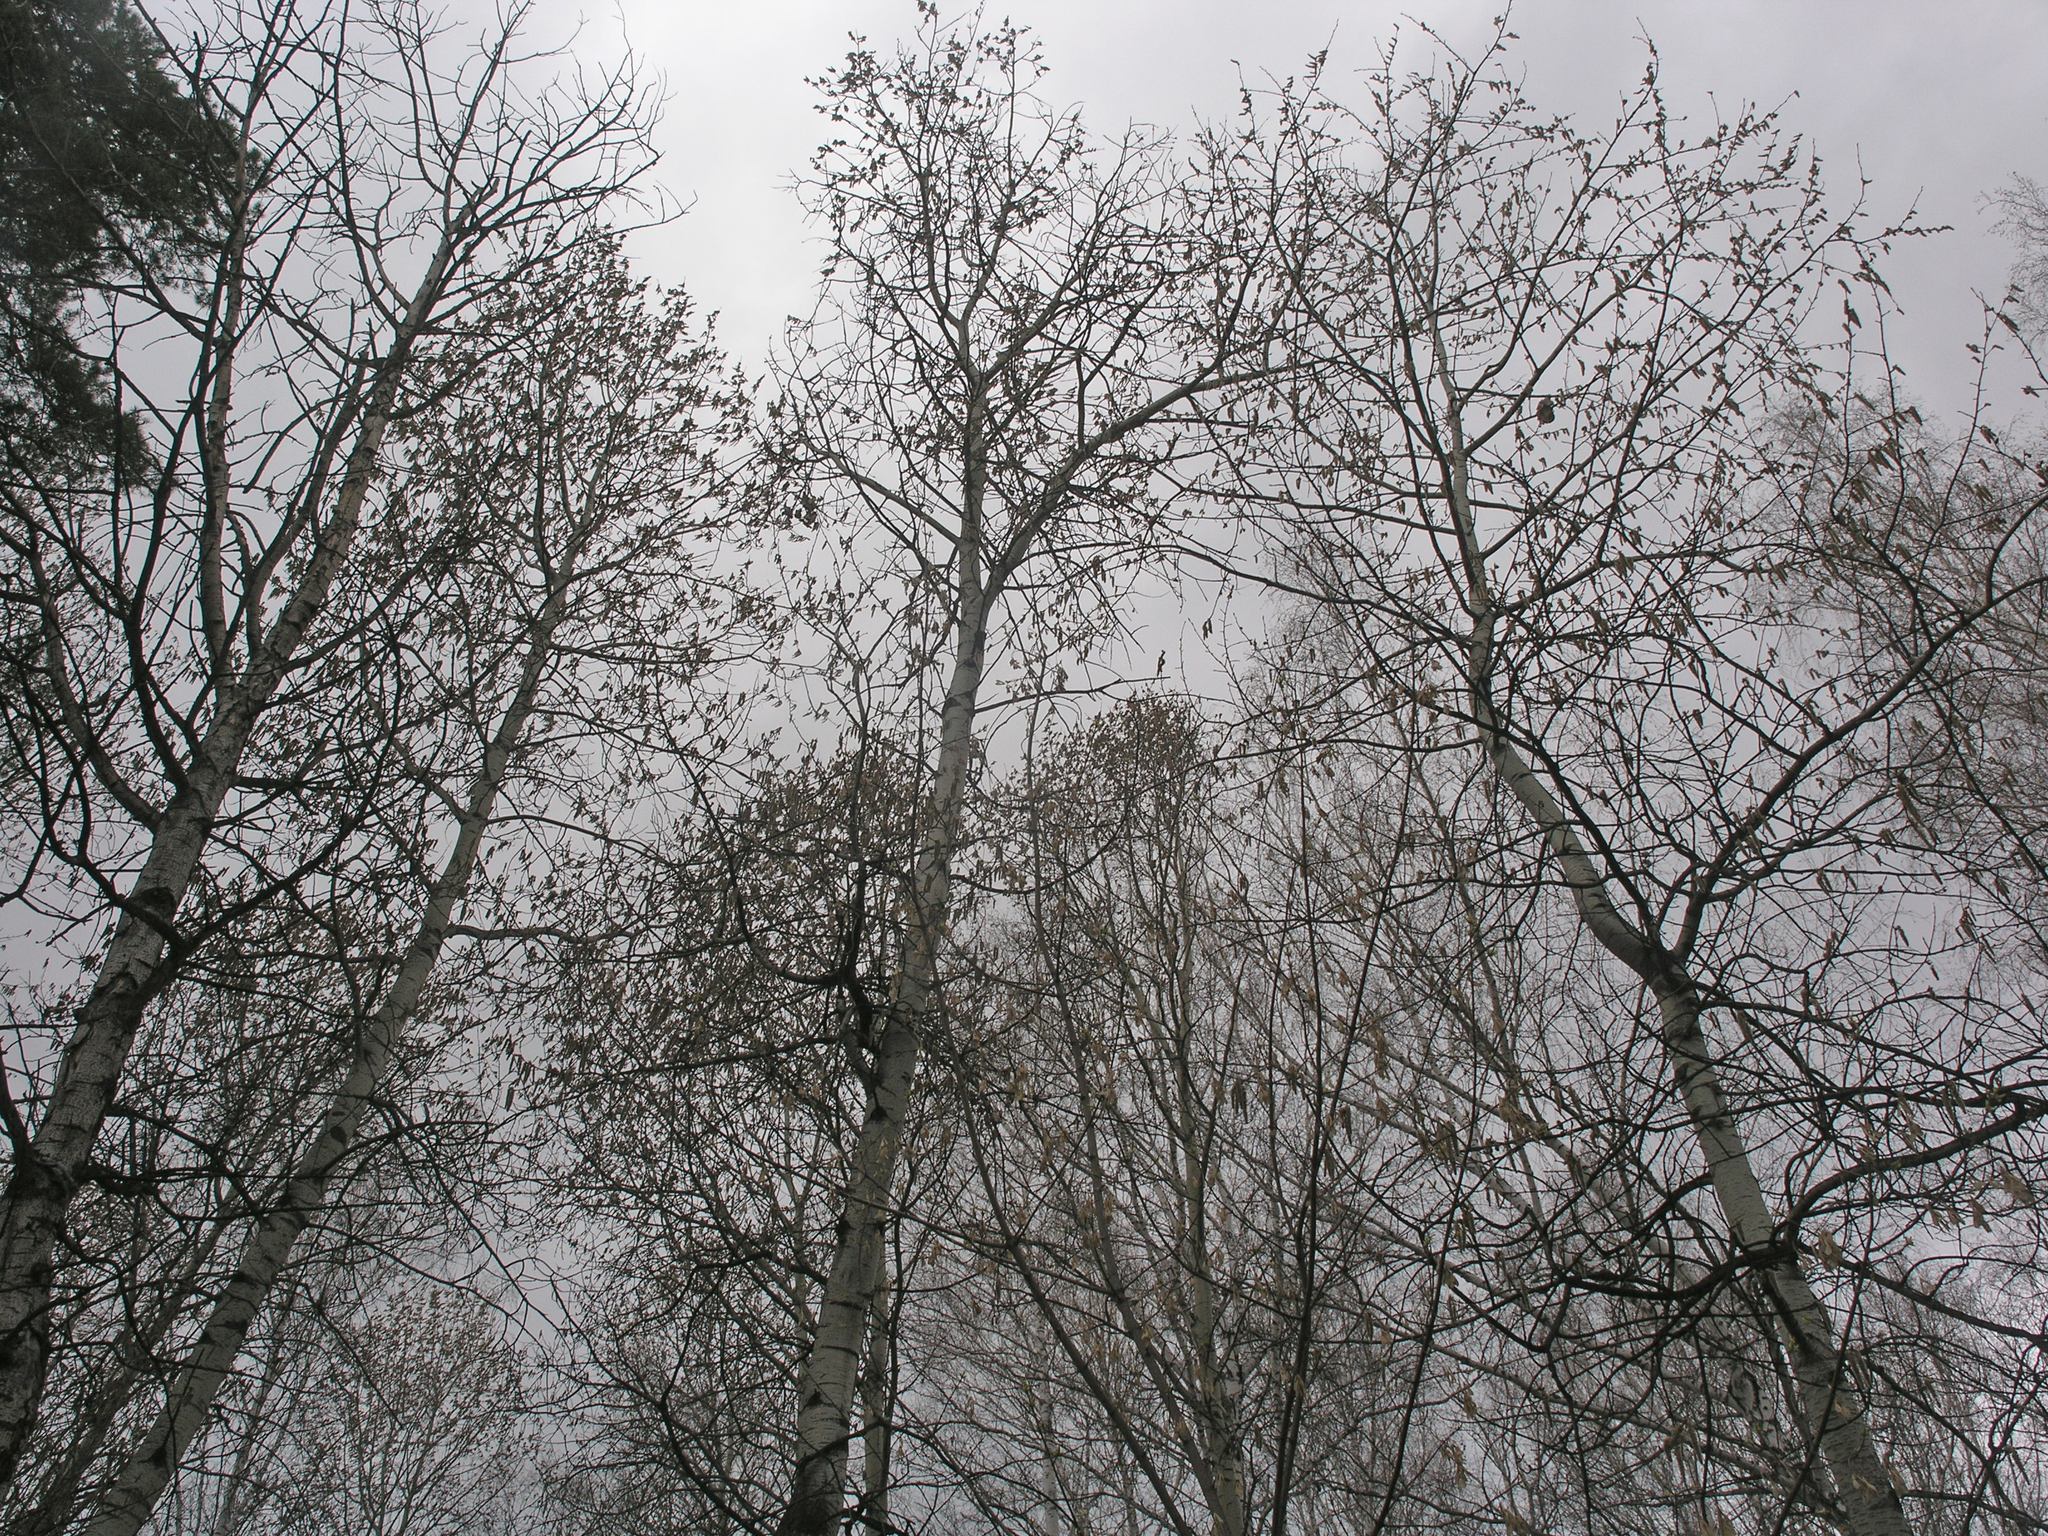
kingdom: Plantae
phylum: Tracheophyta
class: Magnoliopsida
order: Malpighiales
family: Salicaceae
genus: Populus
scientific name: Populus tremula
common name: European aspen
